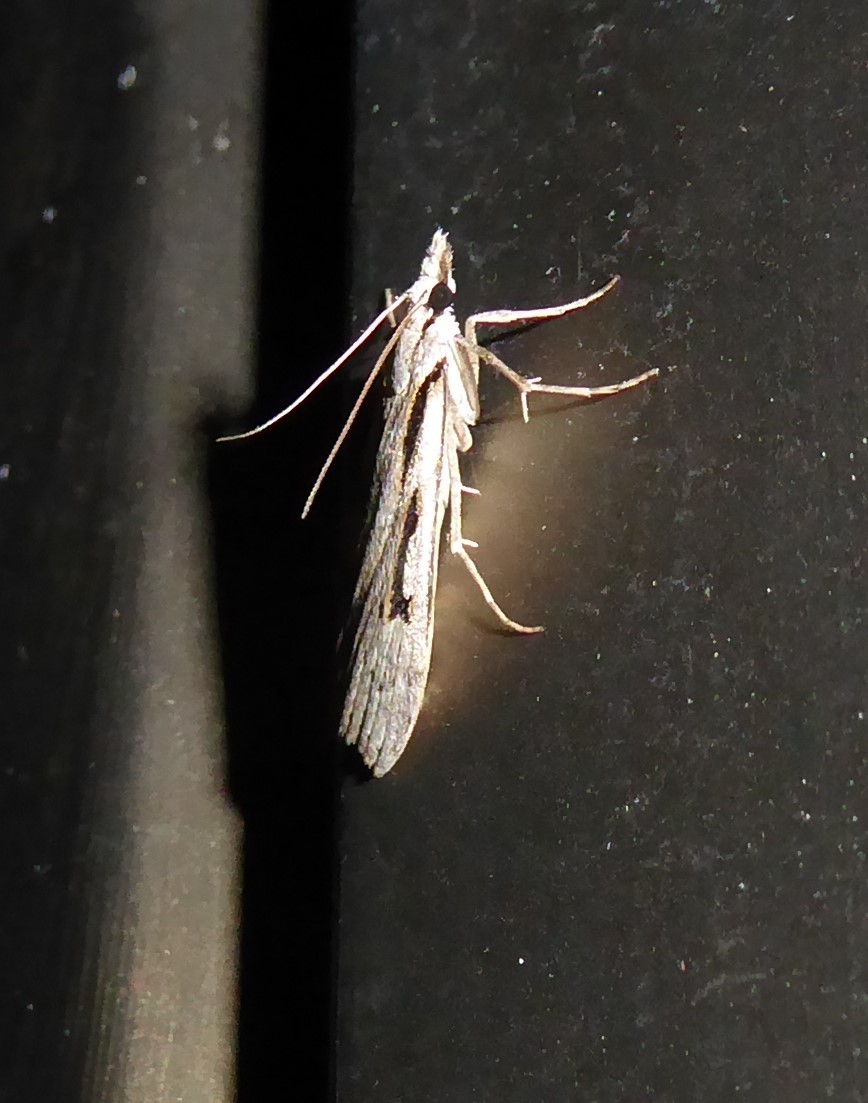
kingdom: Animalia
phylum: Arthropoda
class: Insecta
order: Lepidoptera
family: Crambidae
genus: Scoparia
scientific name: Scoparia rotuellus
